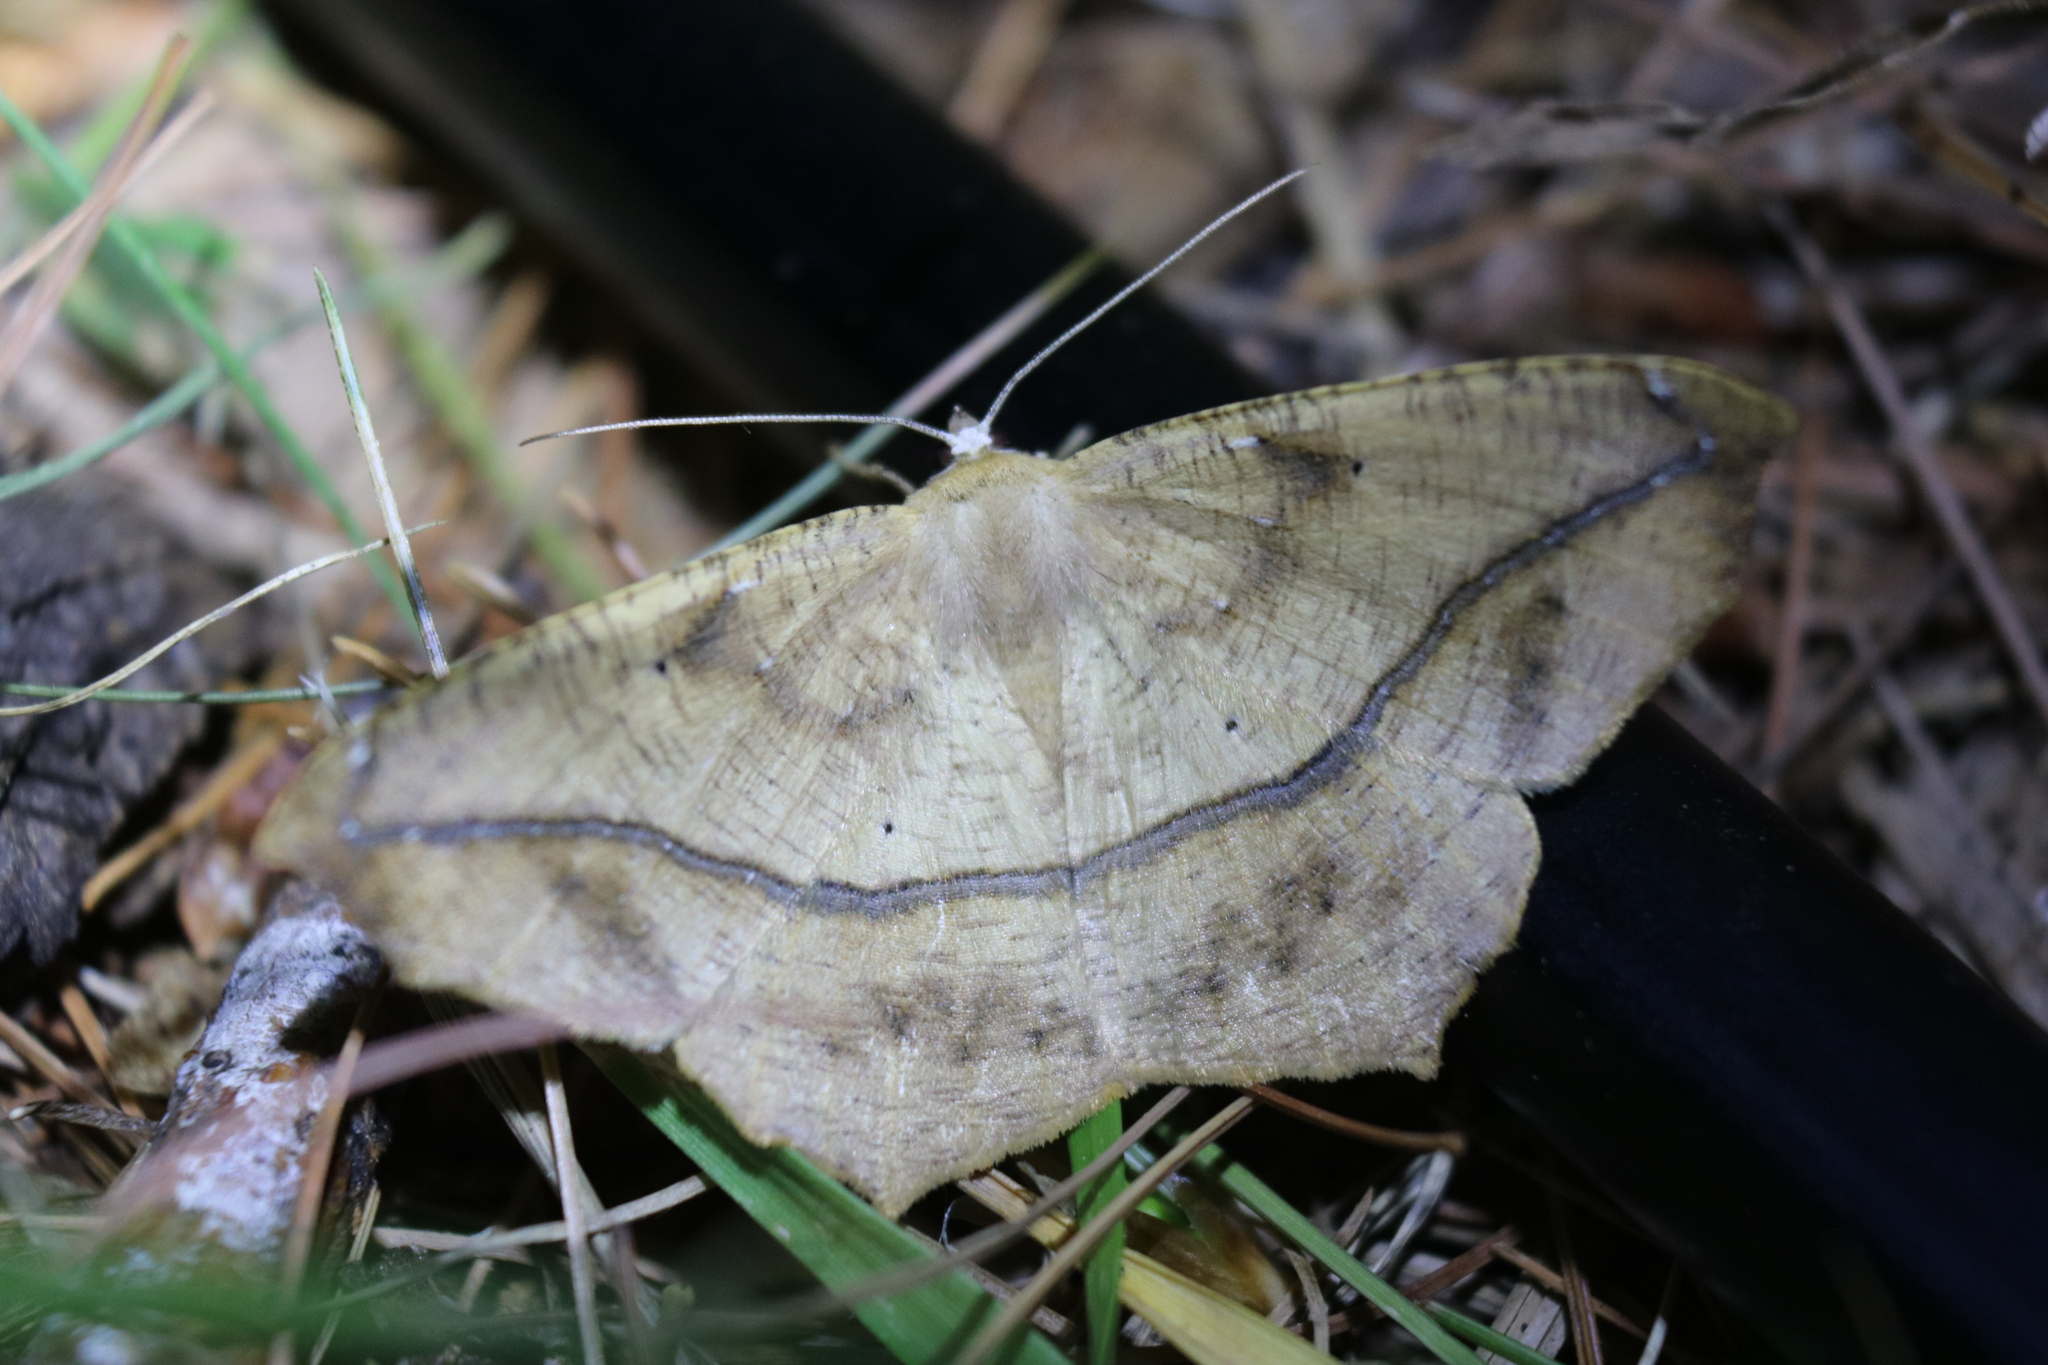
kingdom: Animalia
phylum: Arthropoda
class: Insecta
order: Lepidoptera
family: Geometridae
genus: Prochoerodes
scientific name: Prochoerodes lineola
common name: Large maple spanworm
